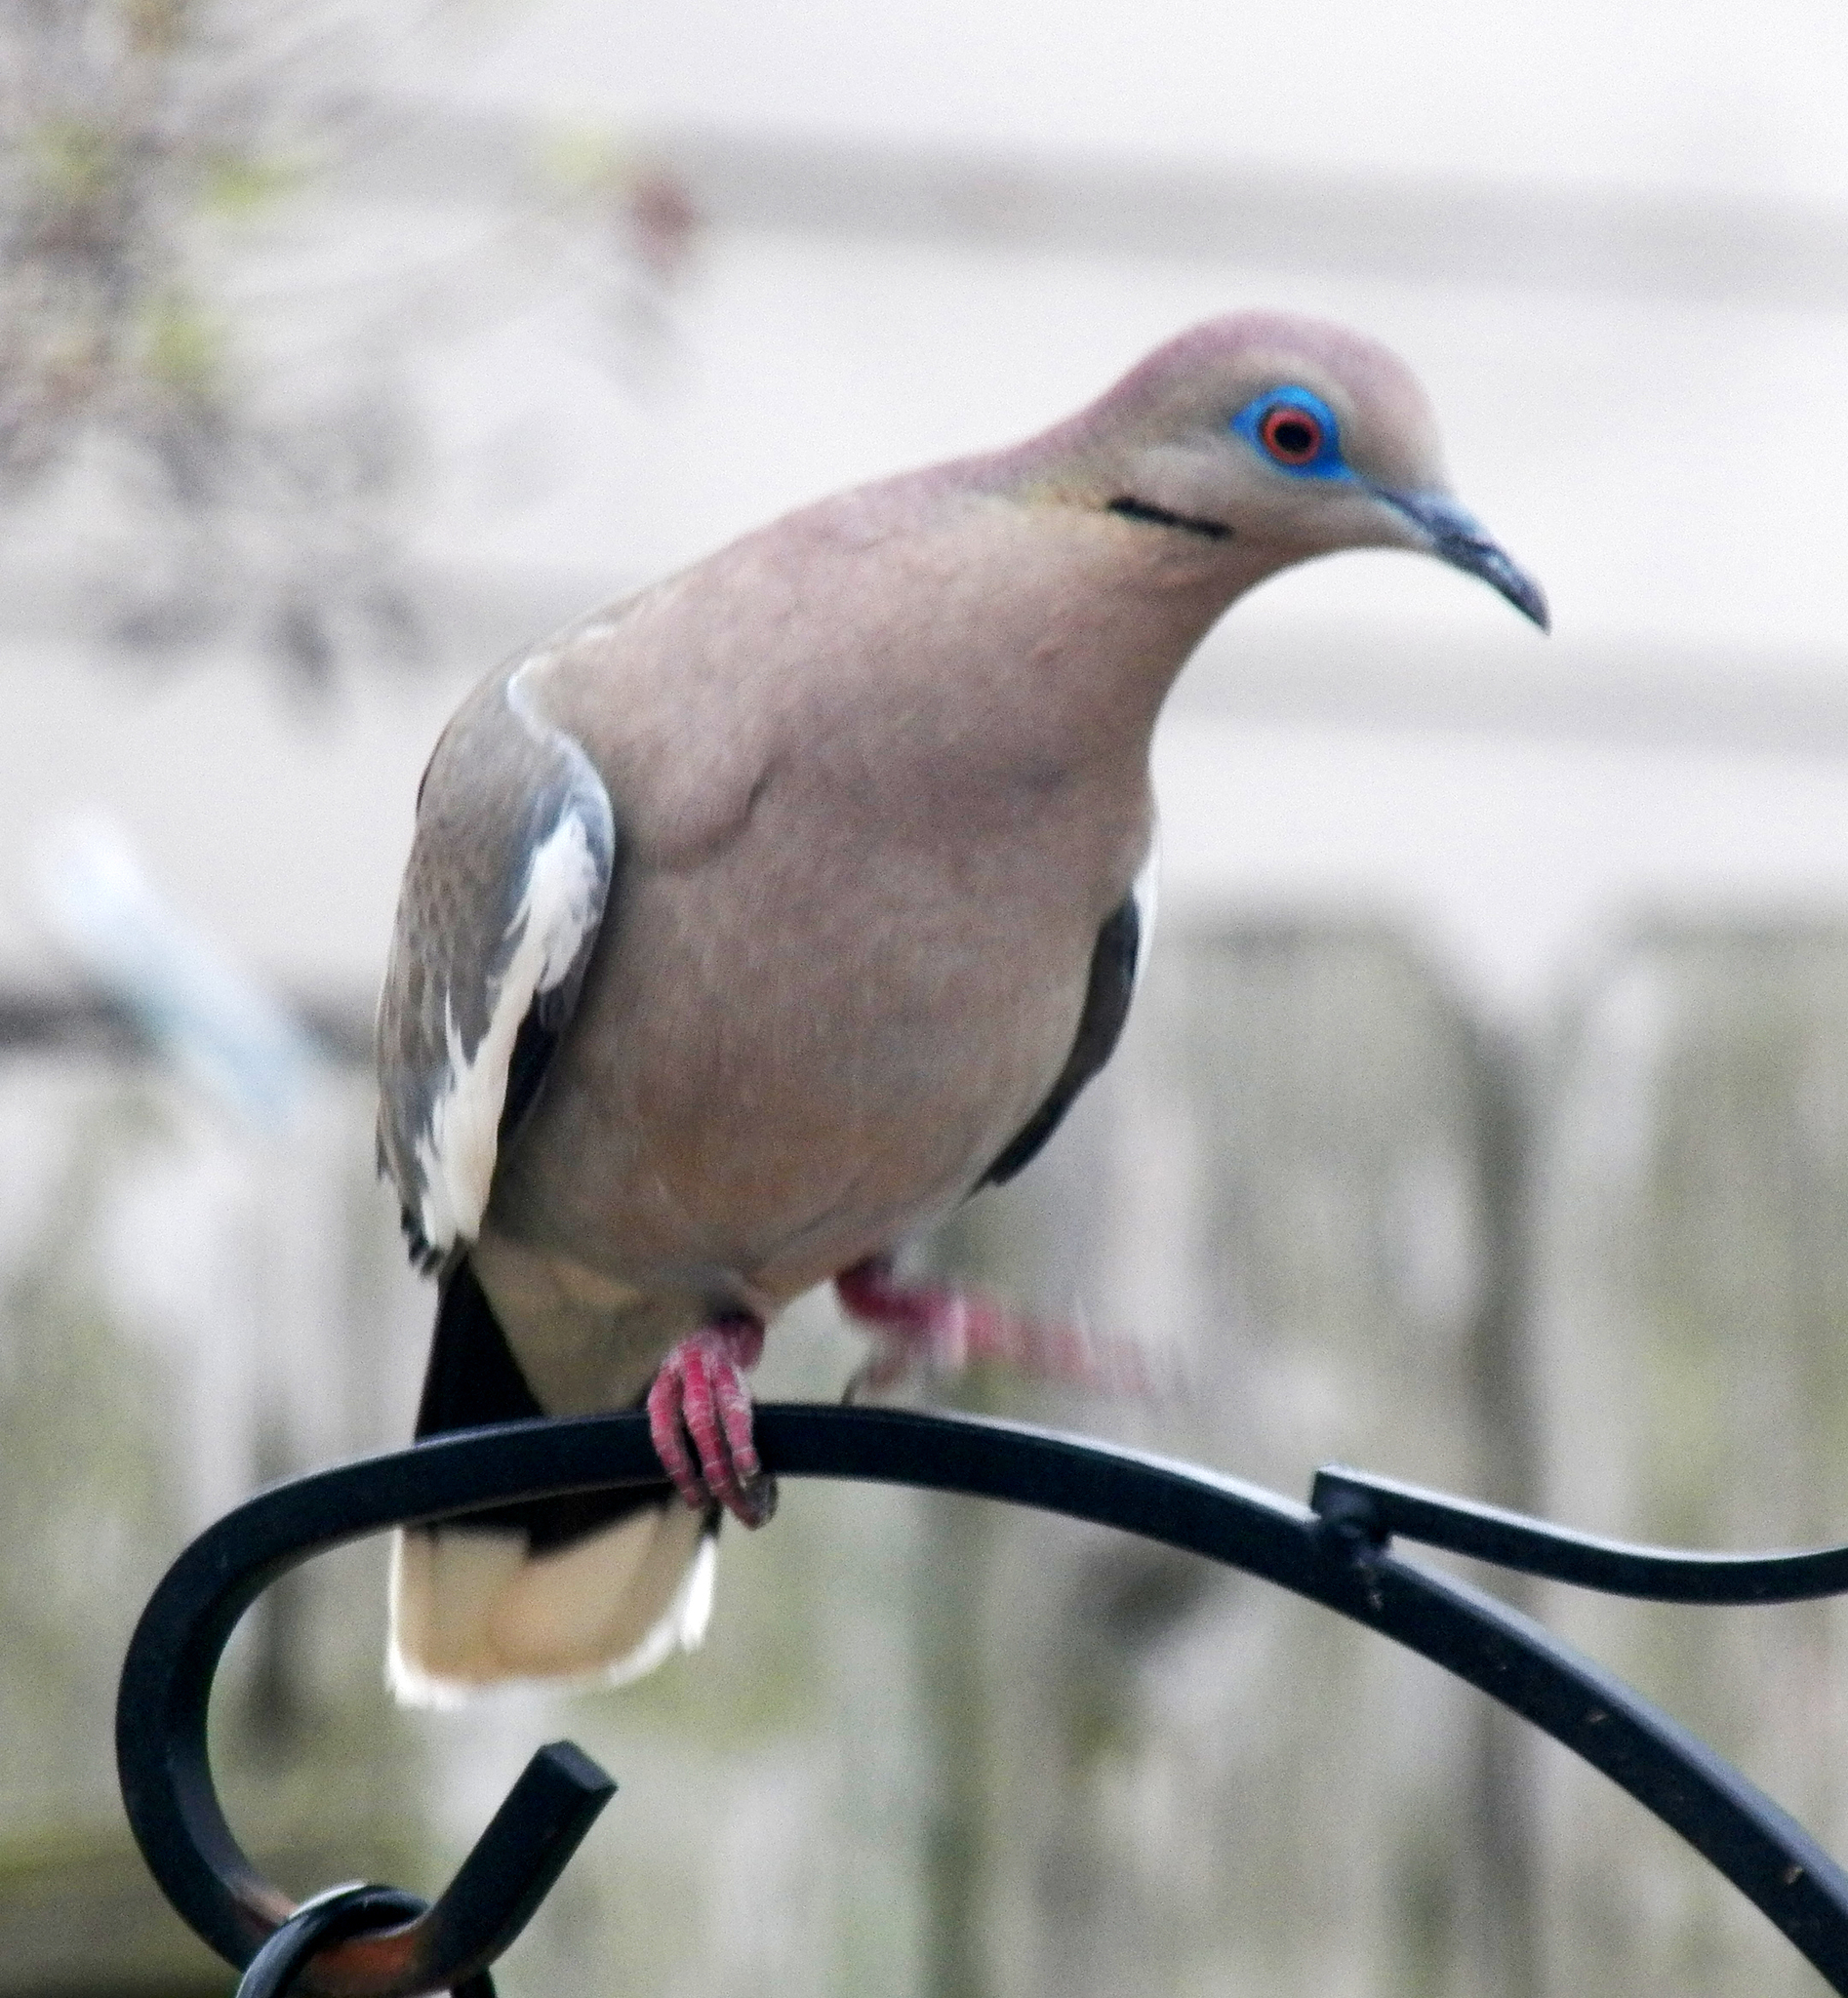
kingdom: Animalia
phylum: Chordata
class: Aves
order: Columbiformes
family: Columbidae
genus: Zenaida
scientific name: Zenaida asiatica
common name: White-winged dove
